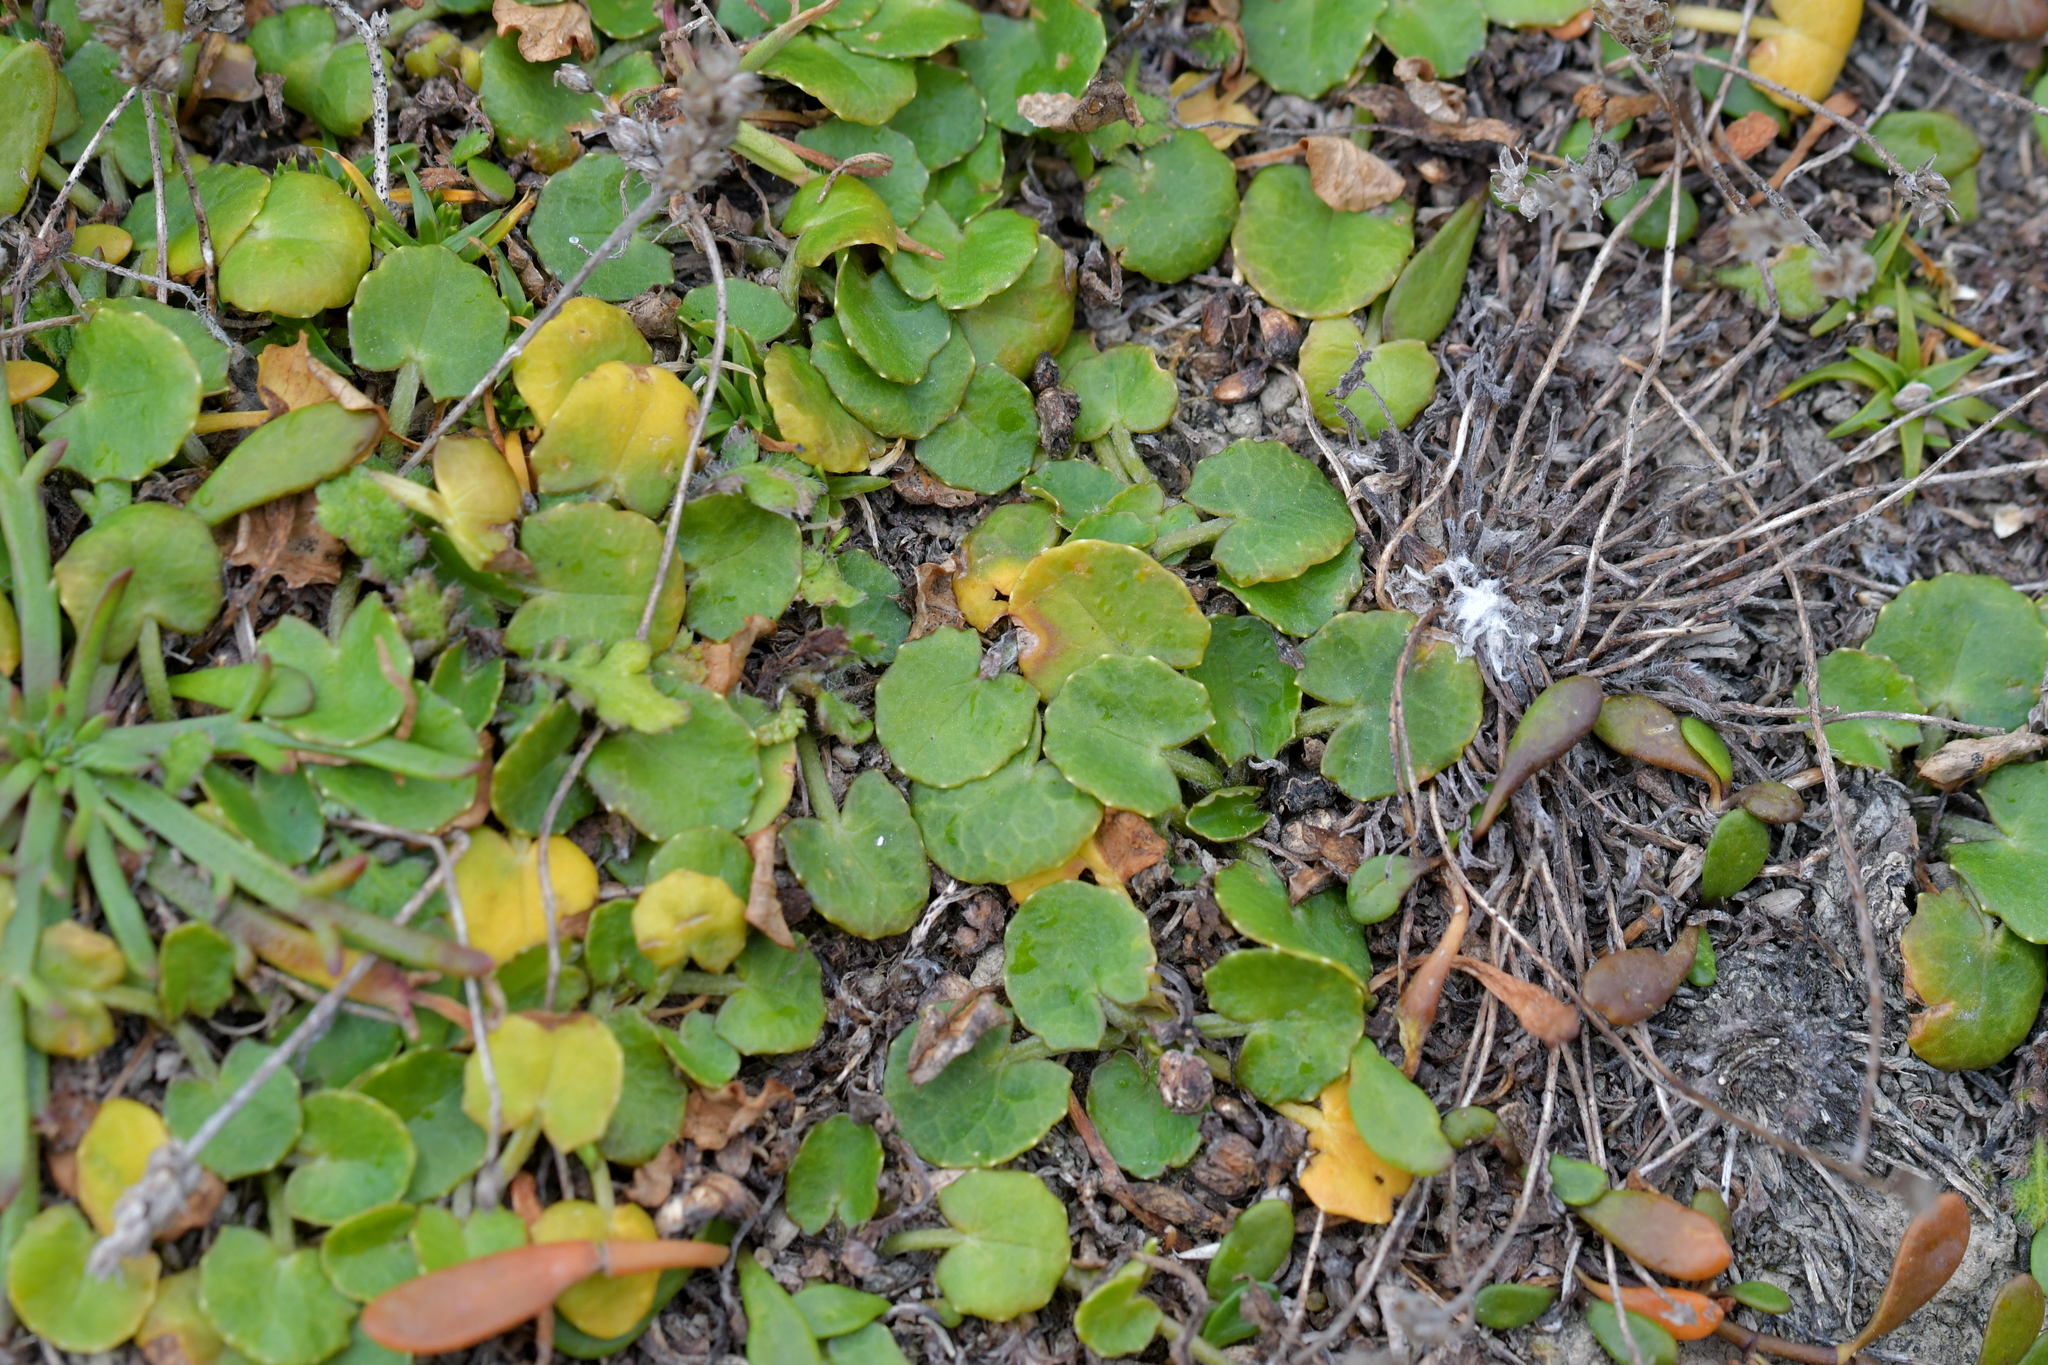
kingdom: Plantae
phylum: Tracheophyta
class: Magnoliopsida
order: Apiales
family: Apiaceae
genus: Centella
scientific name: Centella uniflora
